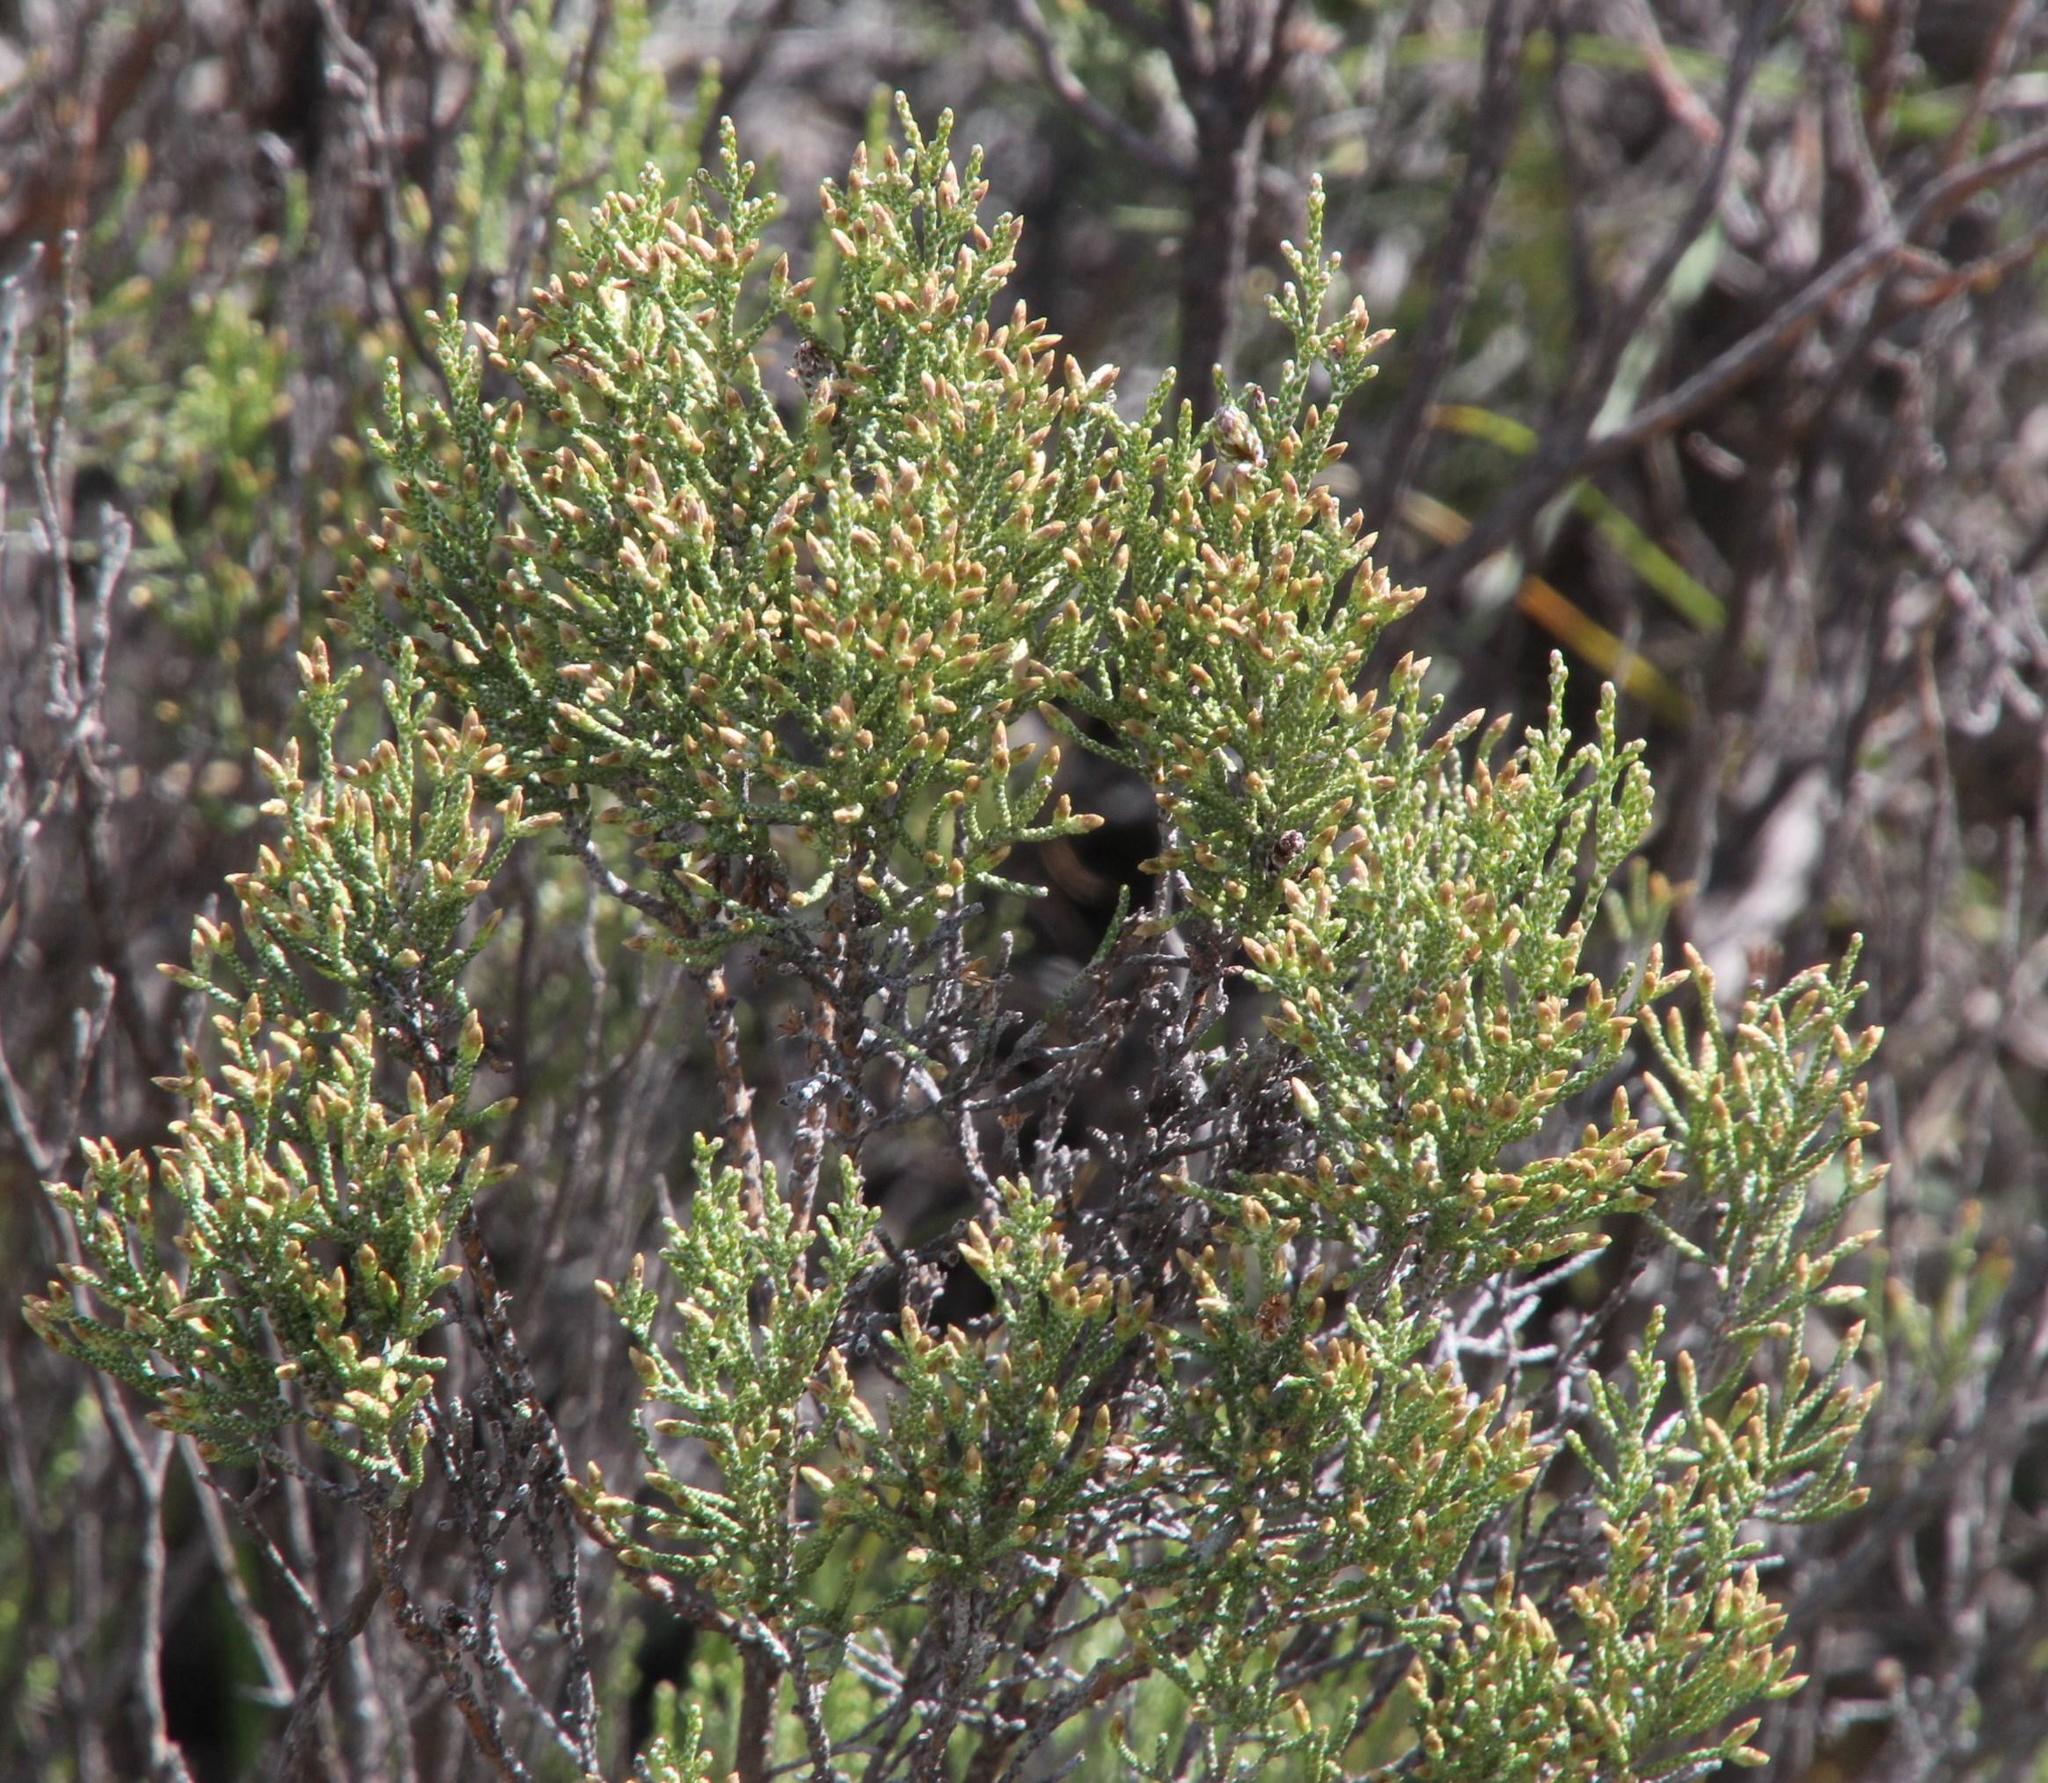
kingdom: Plantae
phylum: Tracheophyta
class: Magnoliopsida
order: Asterales
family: Asteraceae
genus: Dicerothamnus
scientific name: Dicerothamnus rhinocerotis
